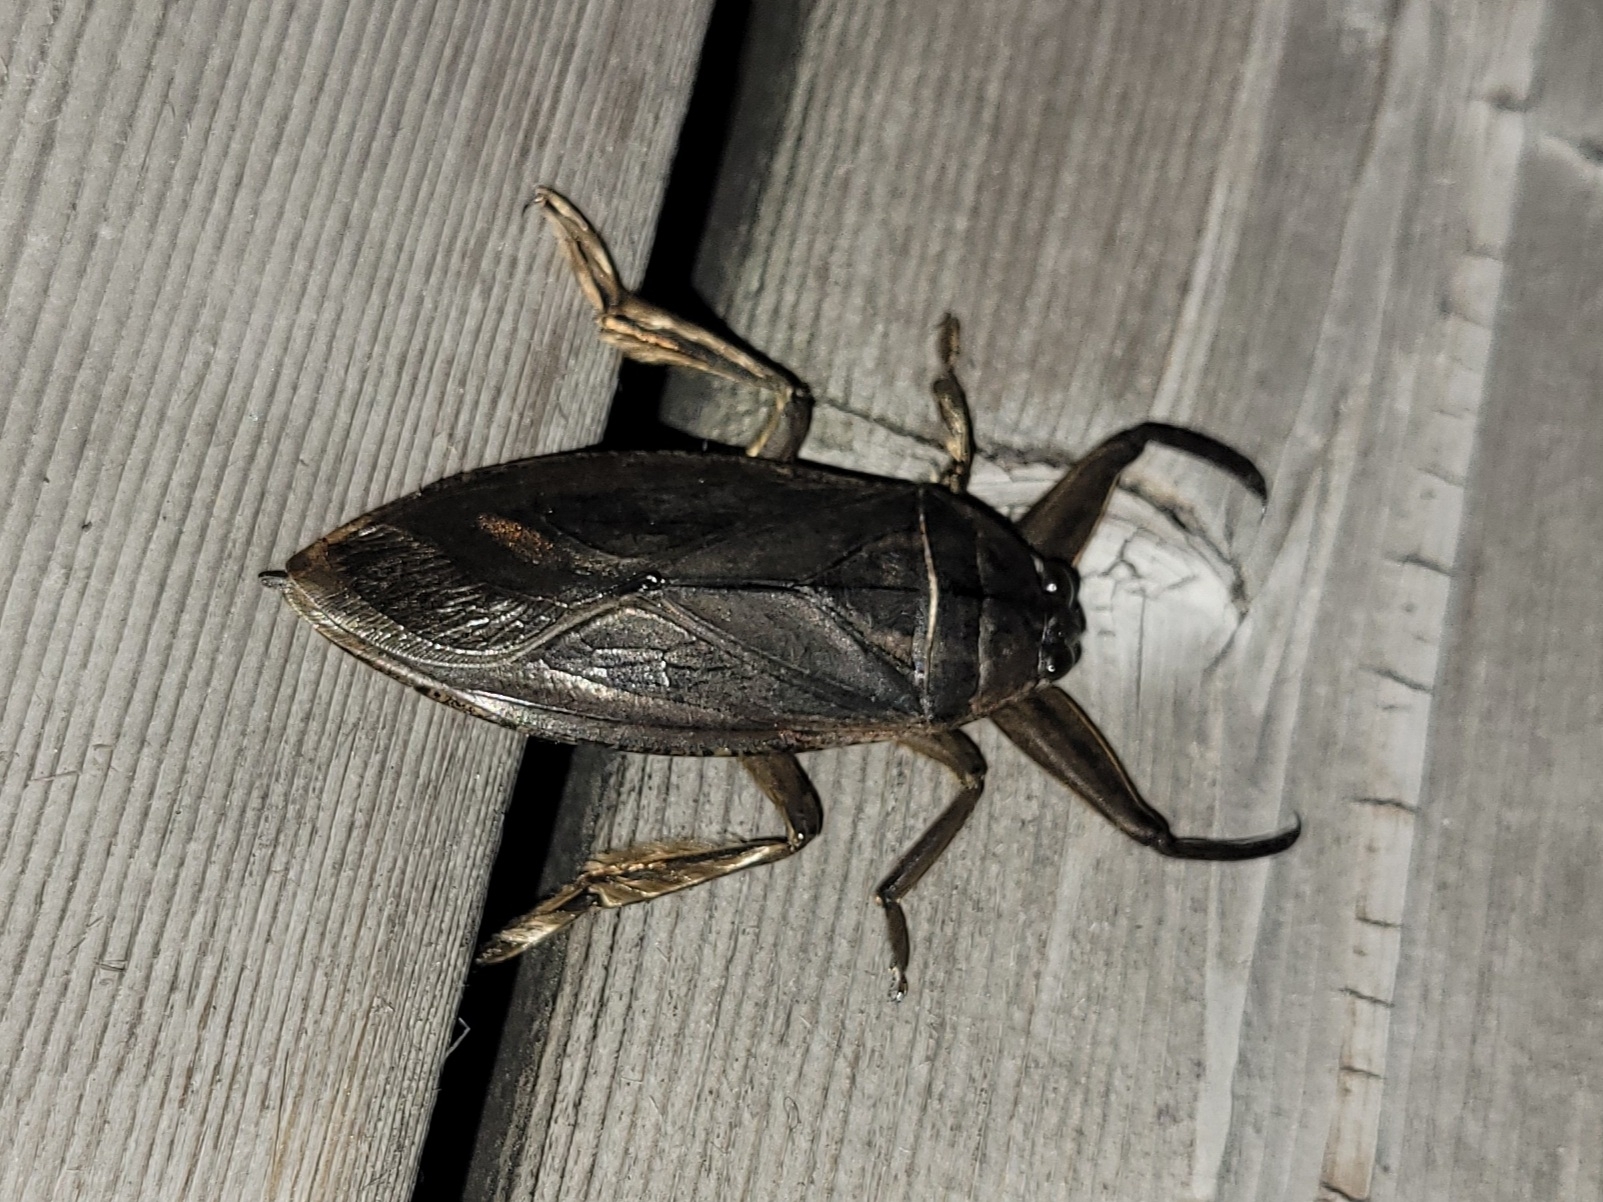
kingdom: Animalia
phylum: Arthropoda
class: Insecta
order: Hemiptera
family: Belostomatidae
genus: Lethocerus
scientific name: Lethocerus americanus
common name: Giant water bug
